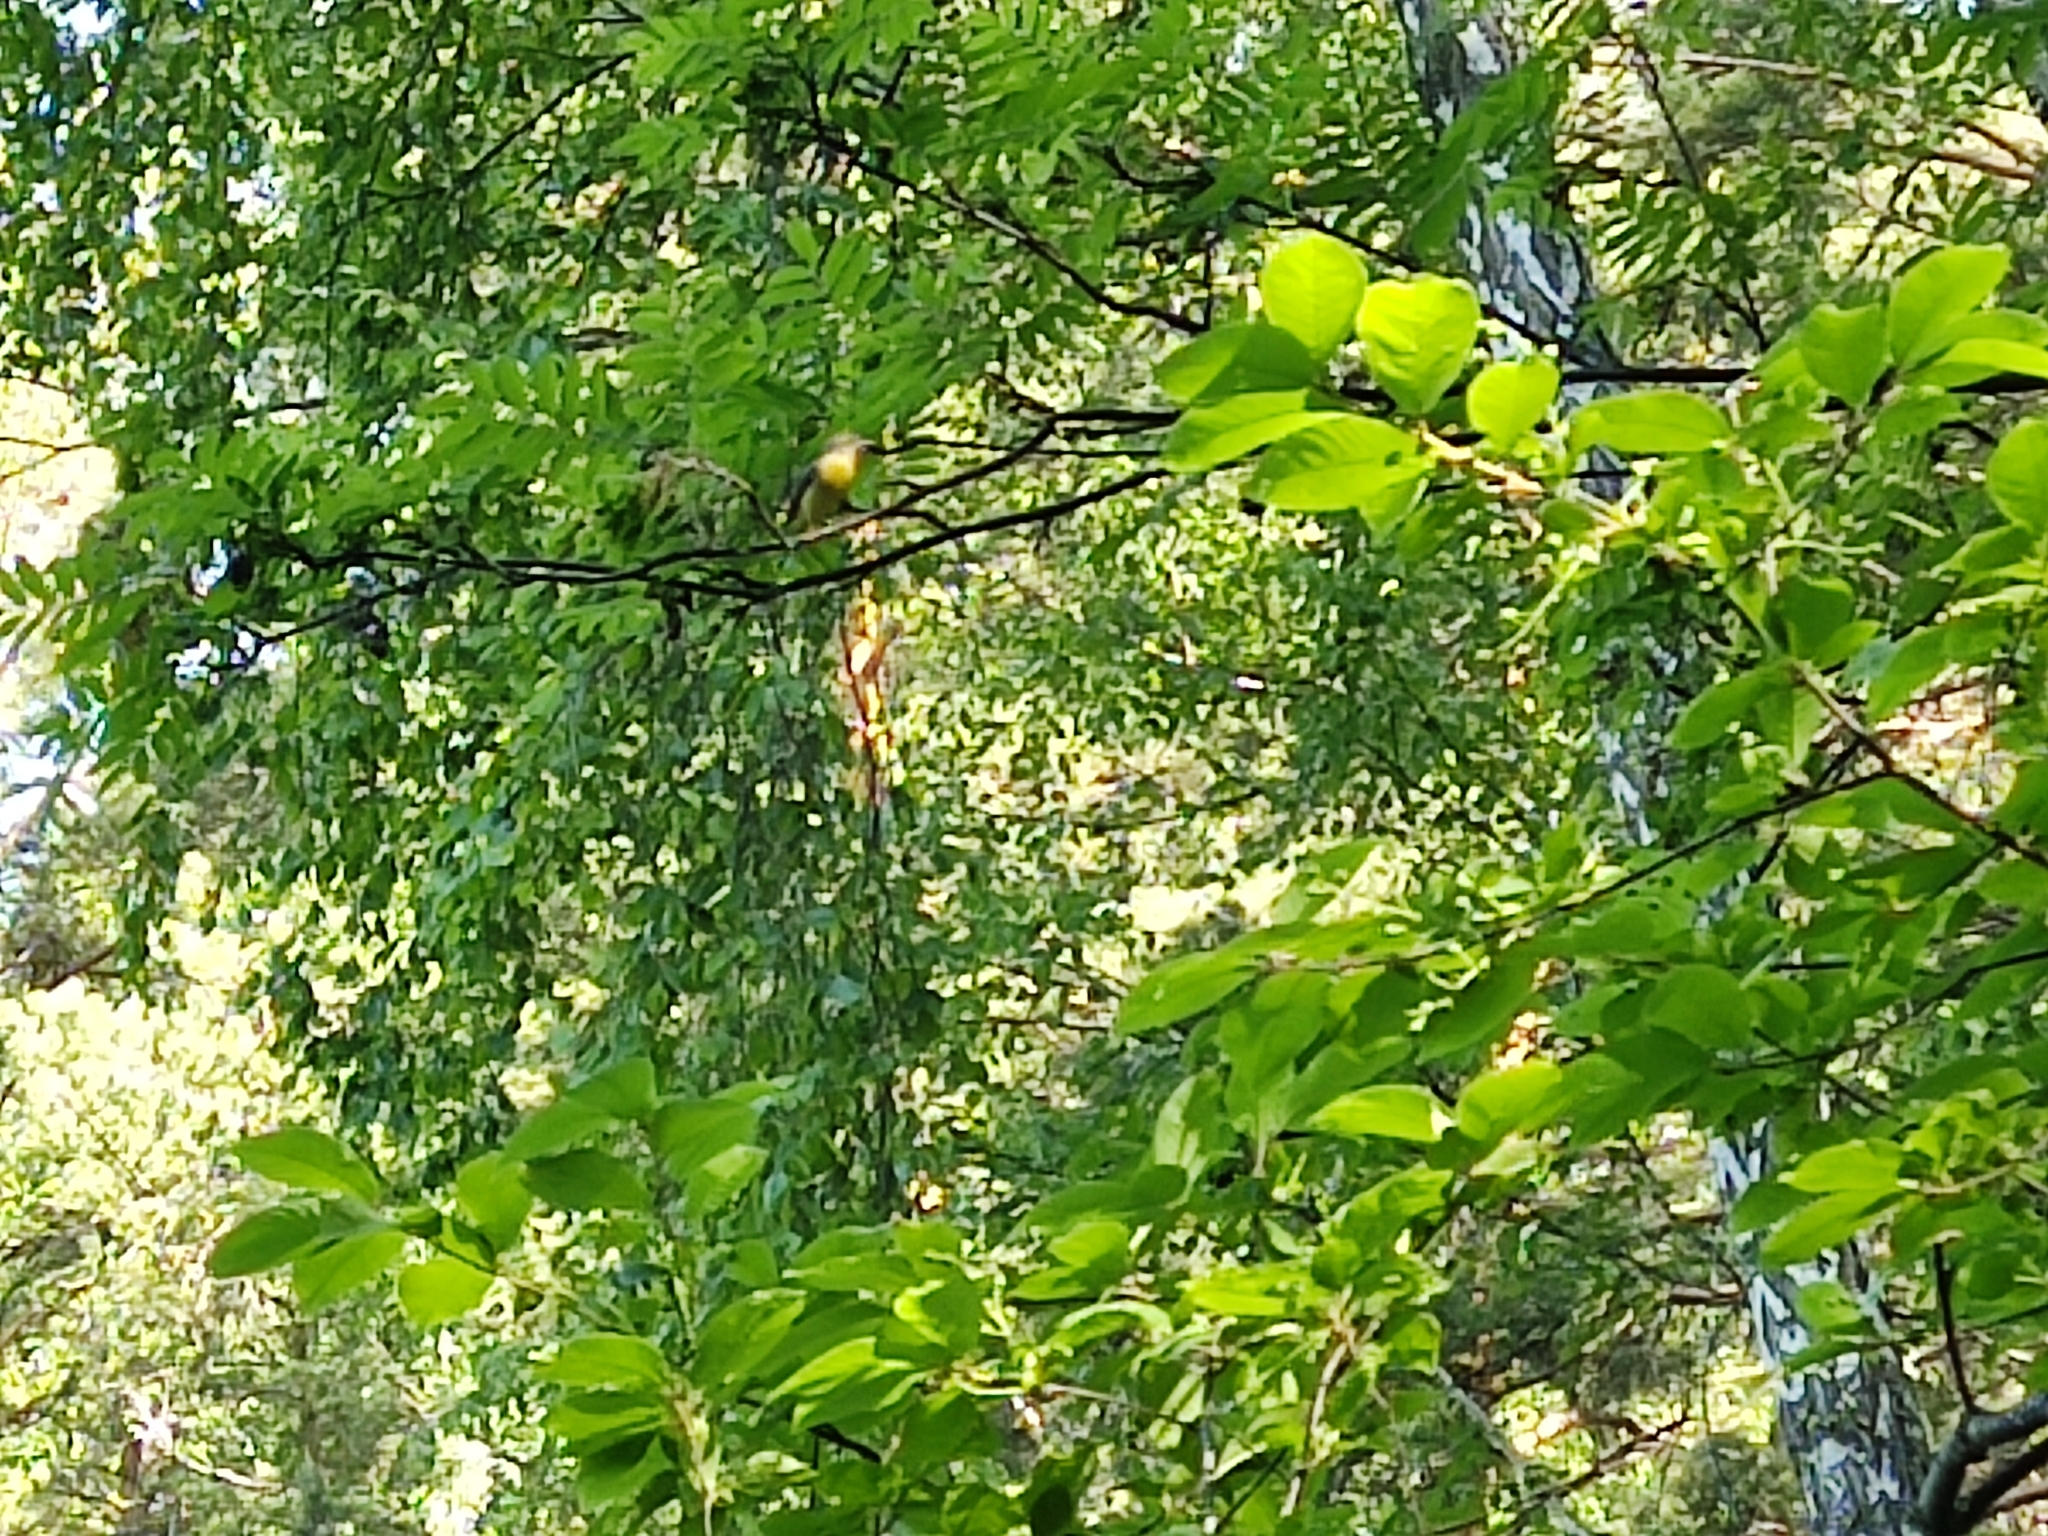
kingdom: Animalia
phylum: Chordata
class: Aves
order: Passeriformes
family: Acrocephalidae
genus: Hippolais
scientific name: Hippolais icterina
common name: Icterine warbler
